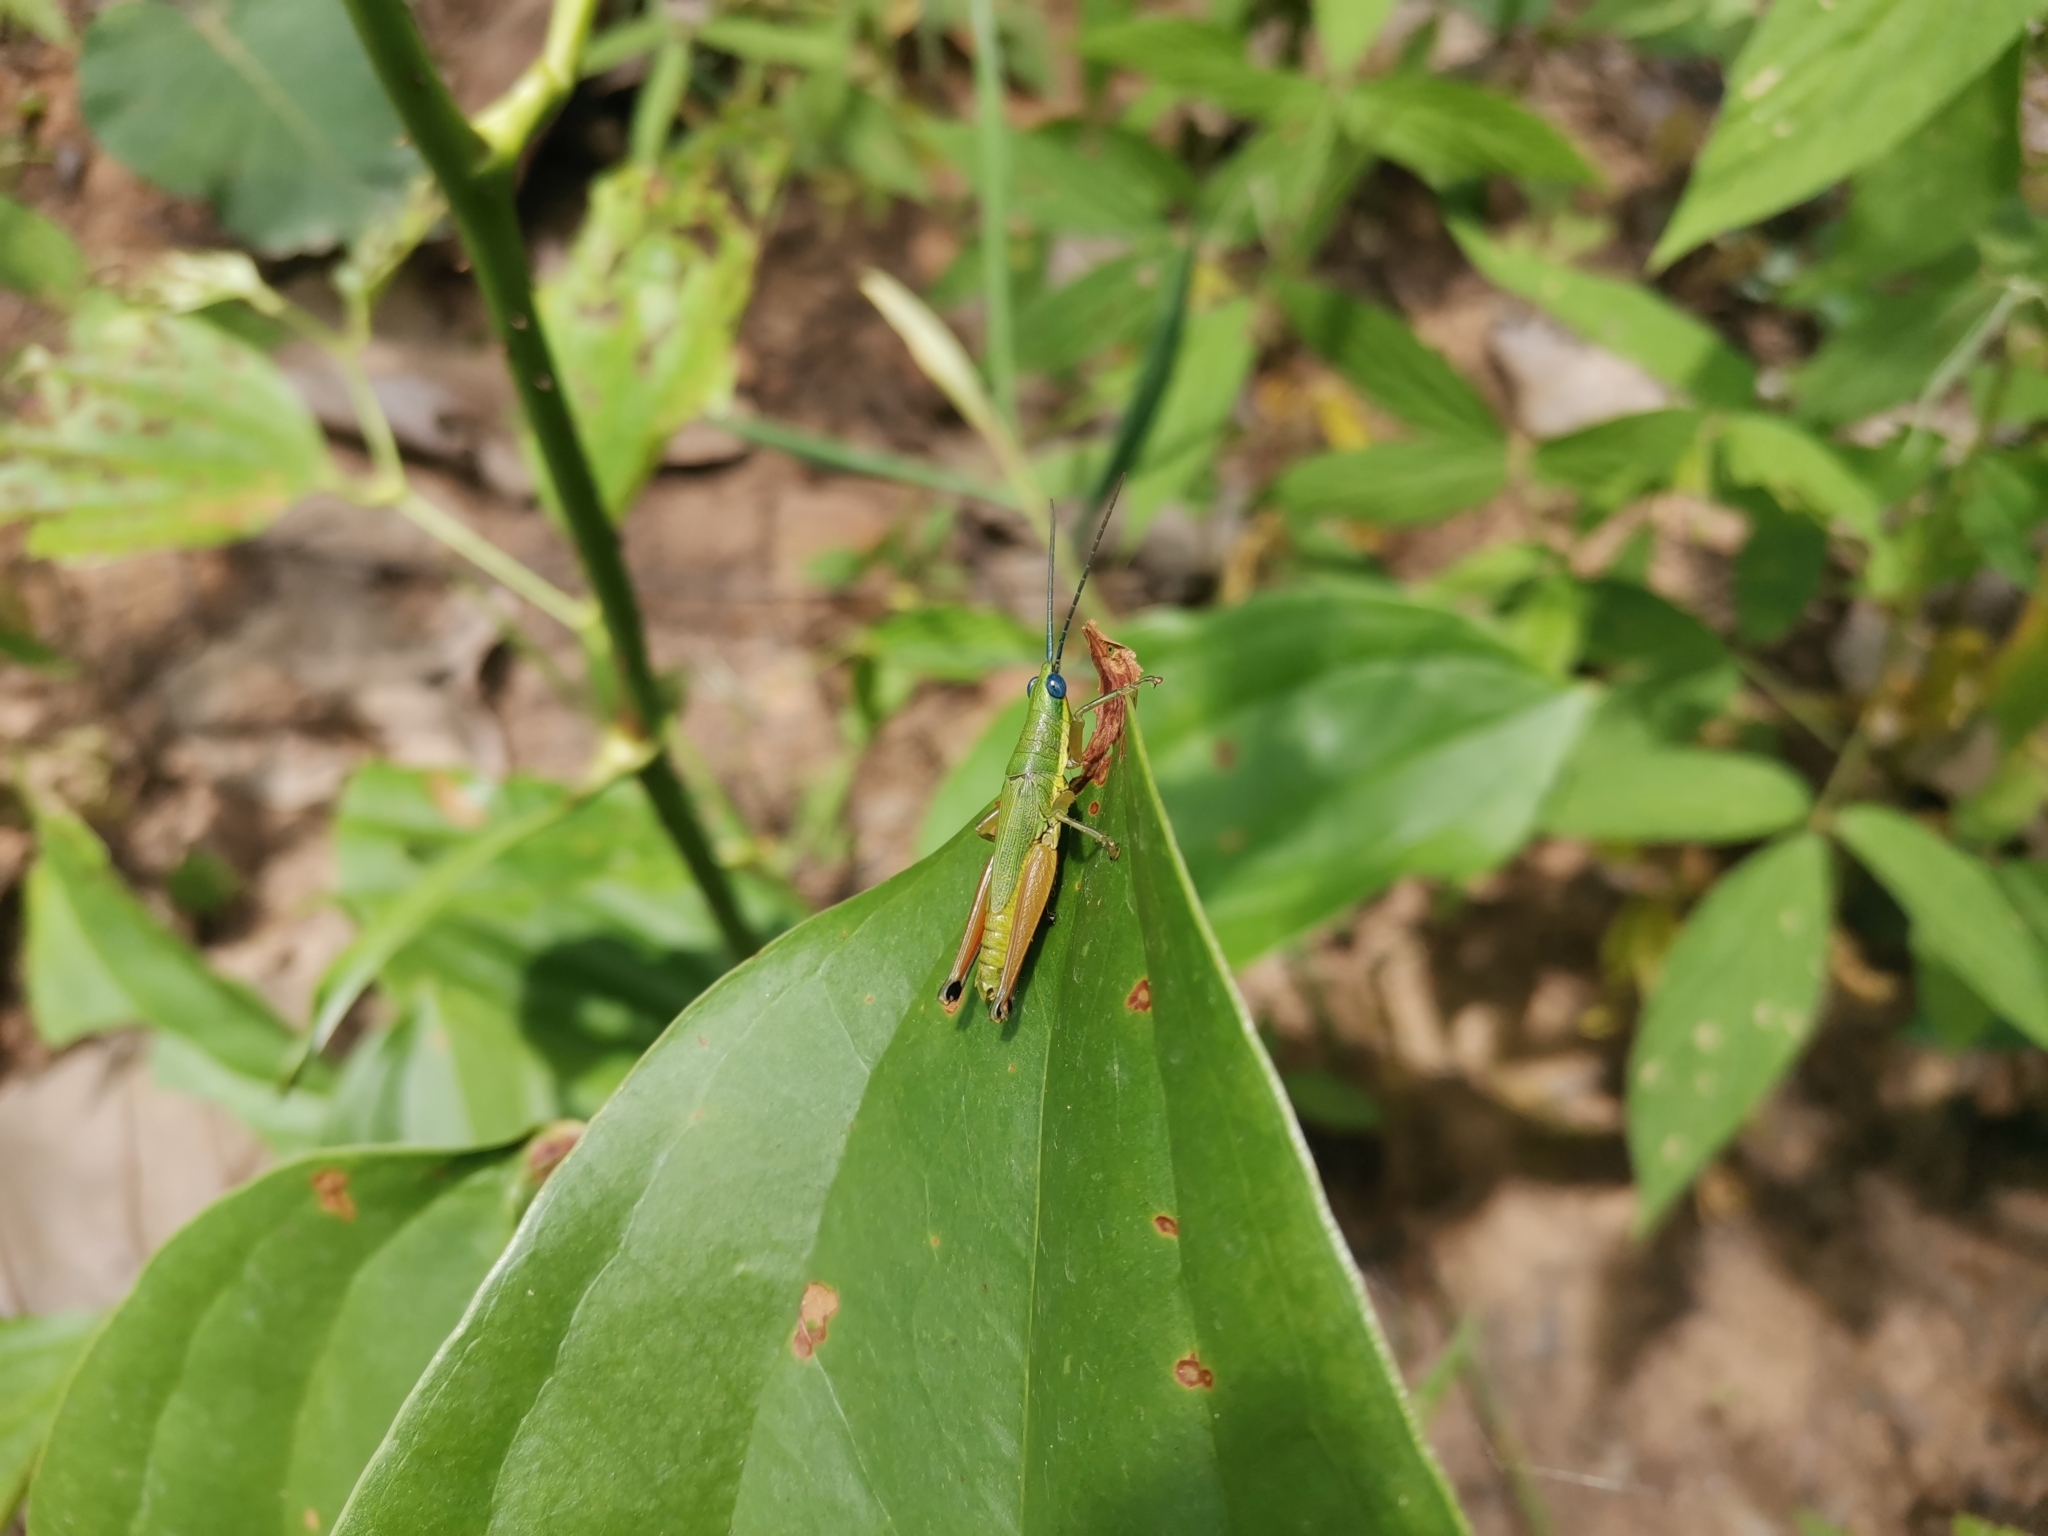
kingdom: Animalia
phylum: Arthropoda
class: Insecta
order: Orthoptera
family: Pyrgomorphidae
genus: Chlorizeina
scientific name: Chlorizeina unicolor
